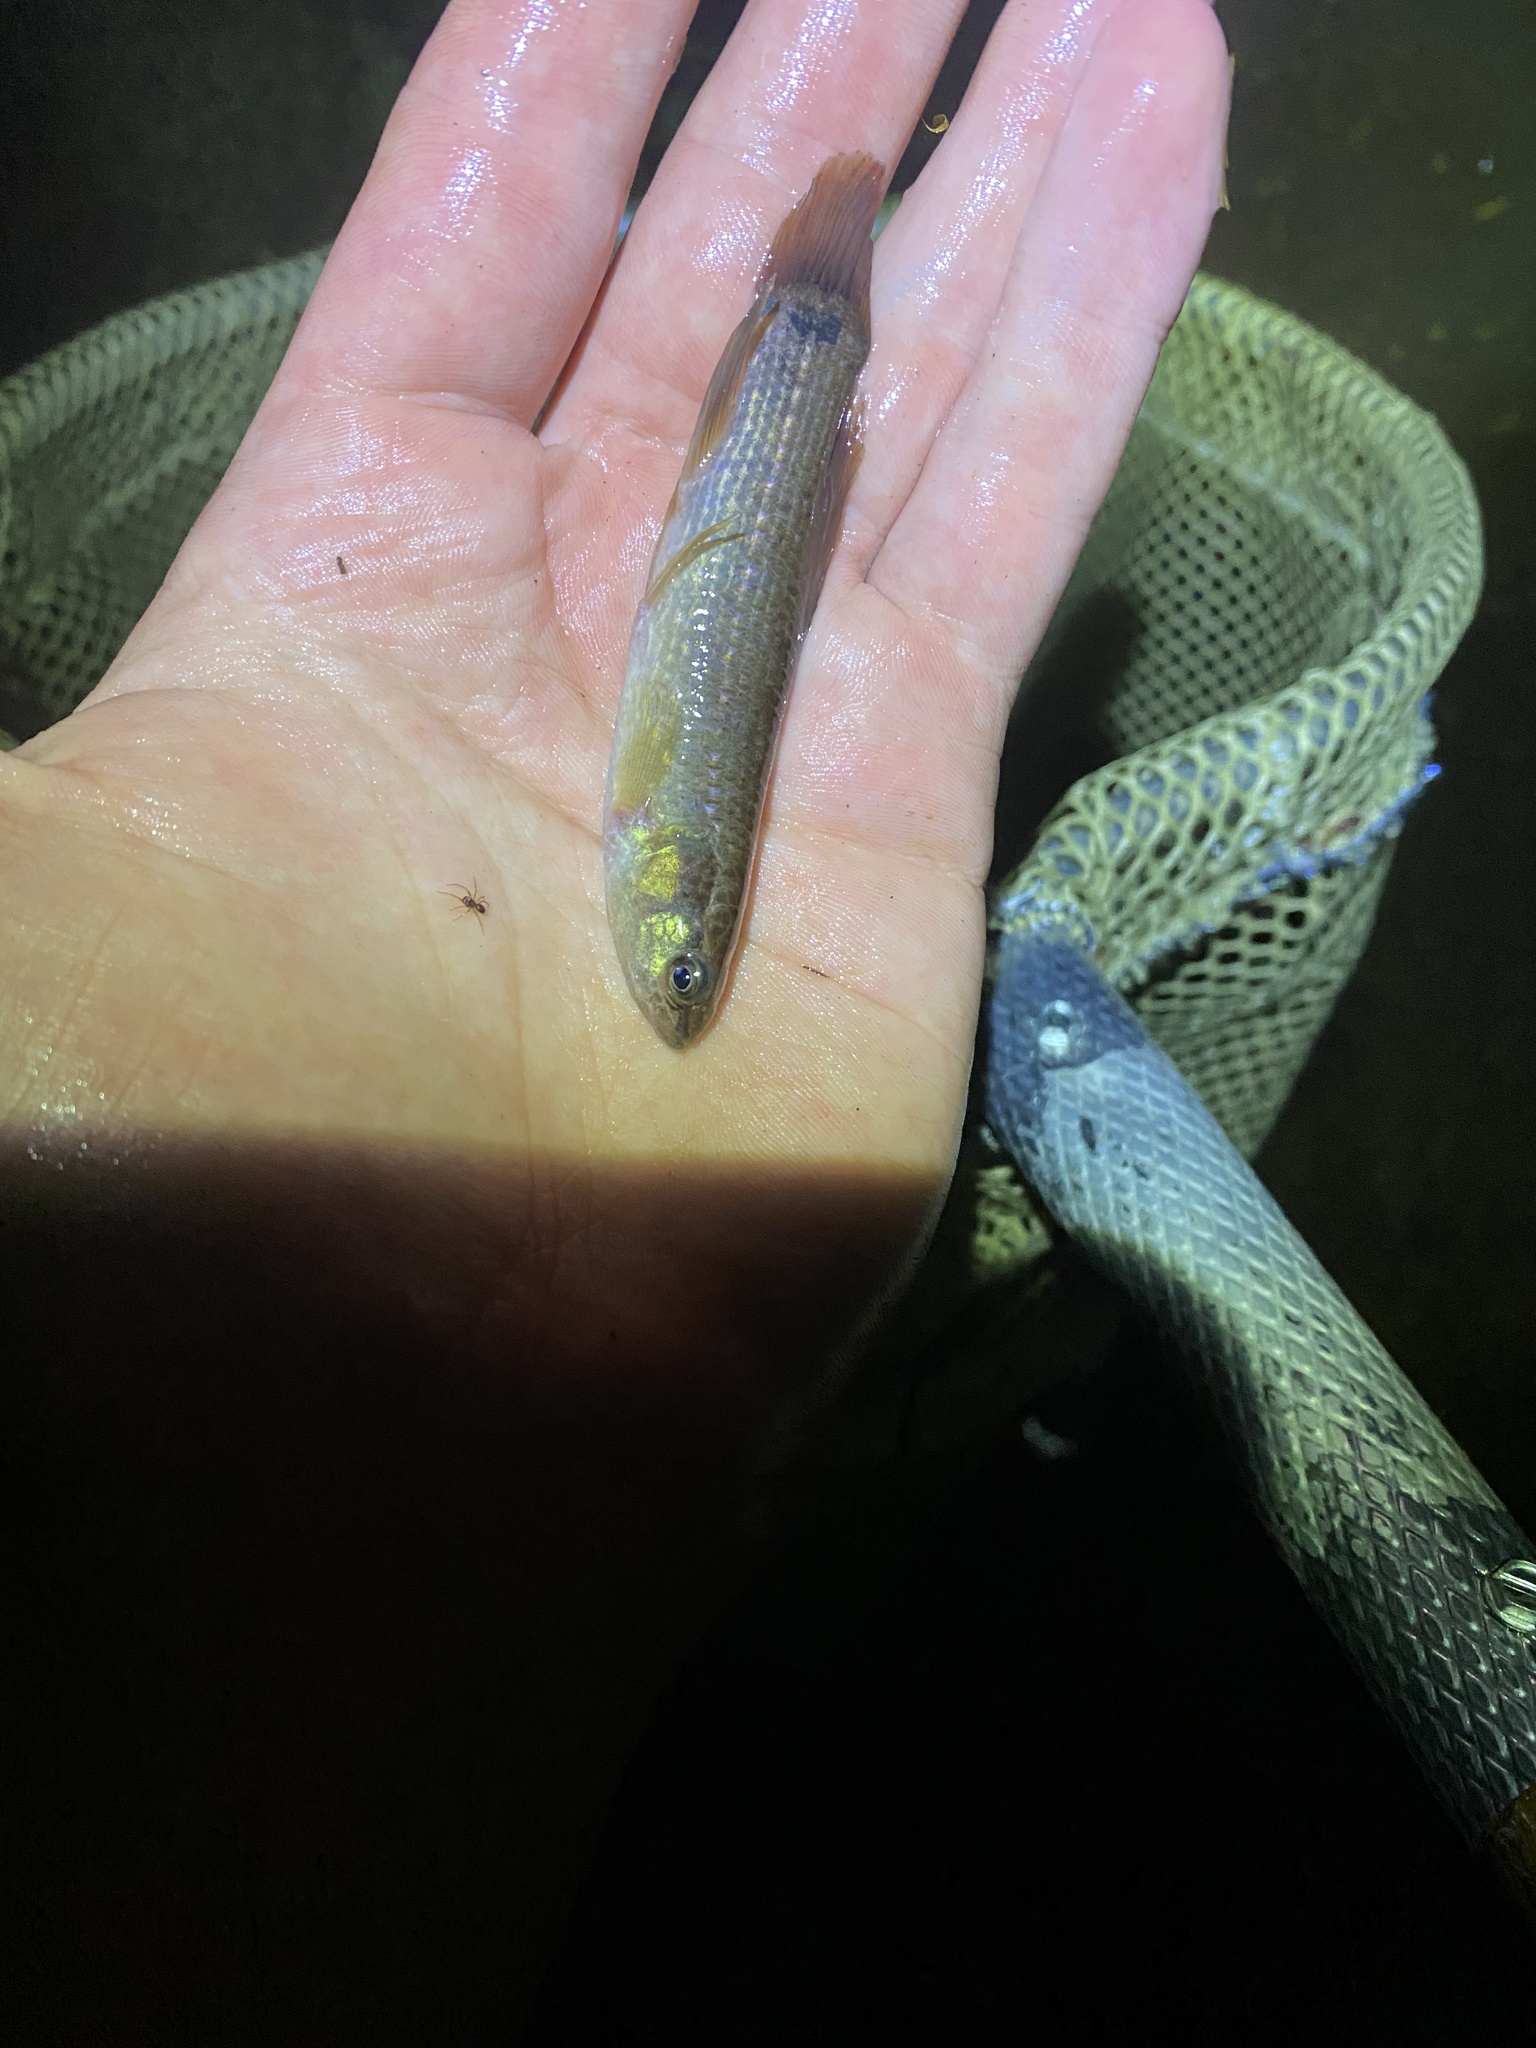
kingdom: Animalia
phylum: Chordata
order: Esociformes
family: Umbridae
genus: Umbra
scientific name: Umbra pygmaea
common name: Eastern mudminnow
